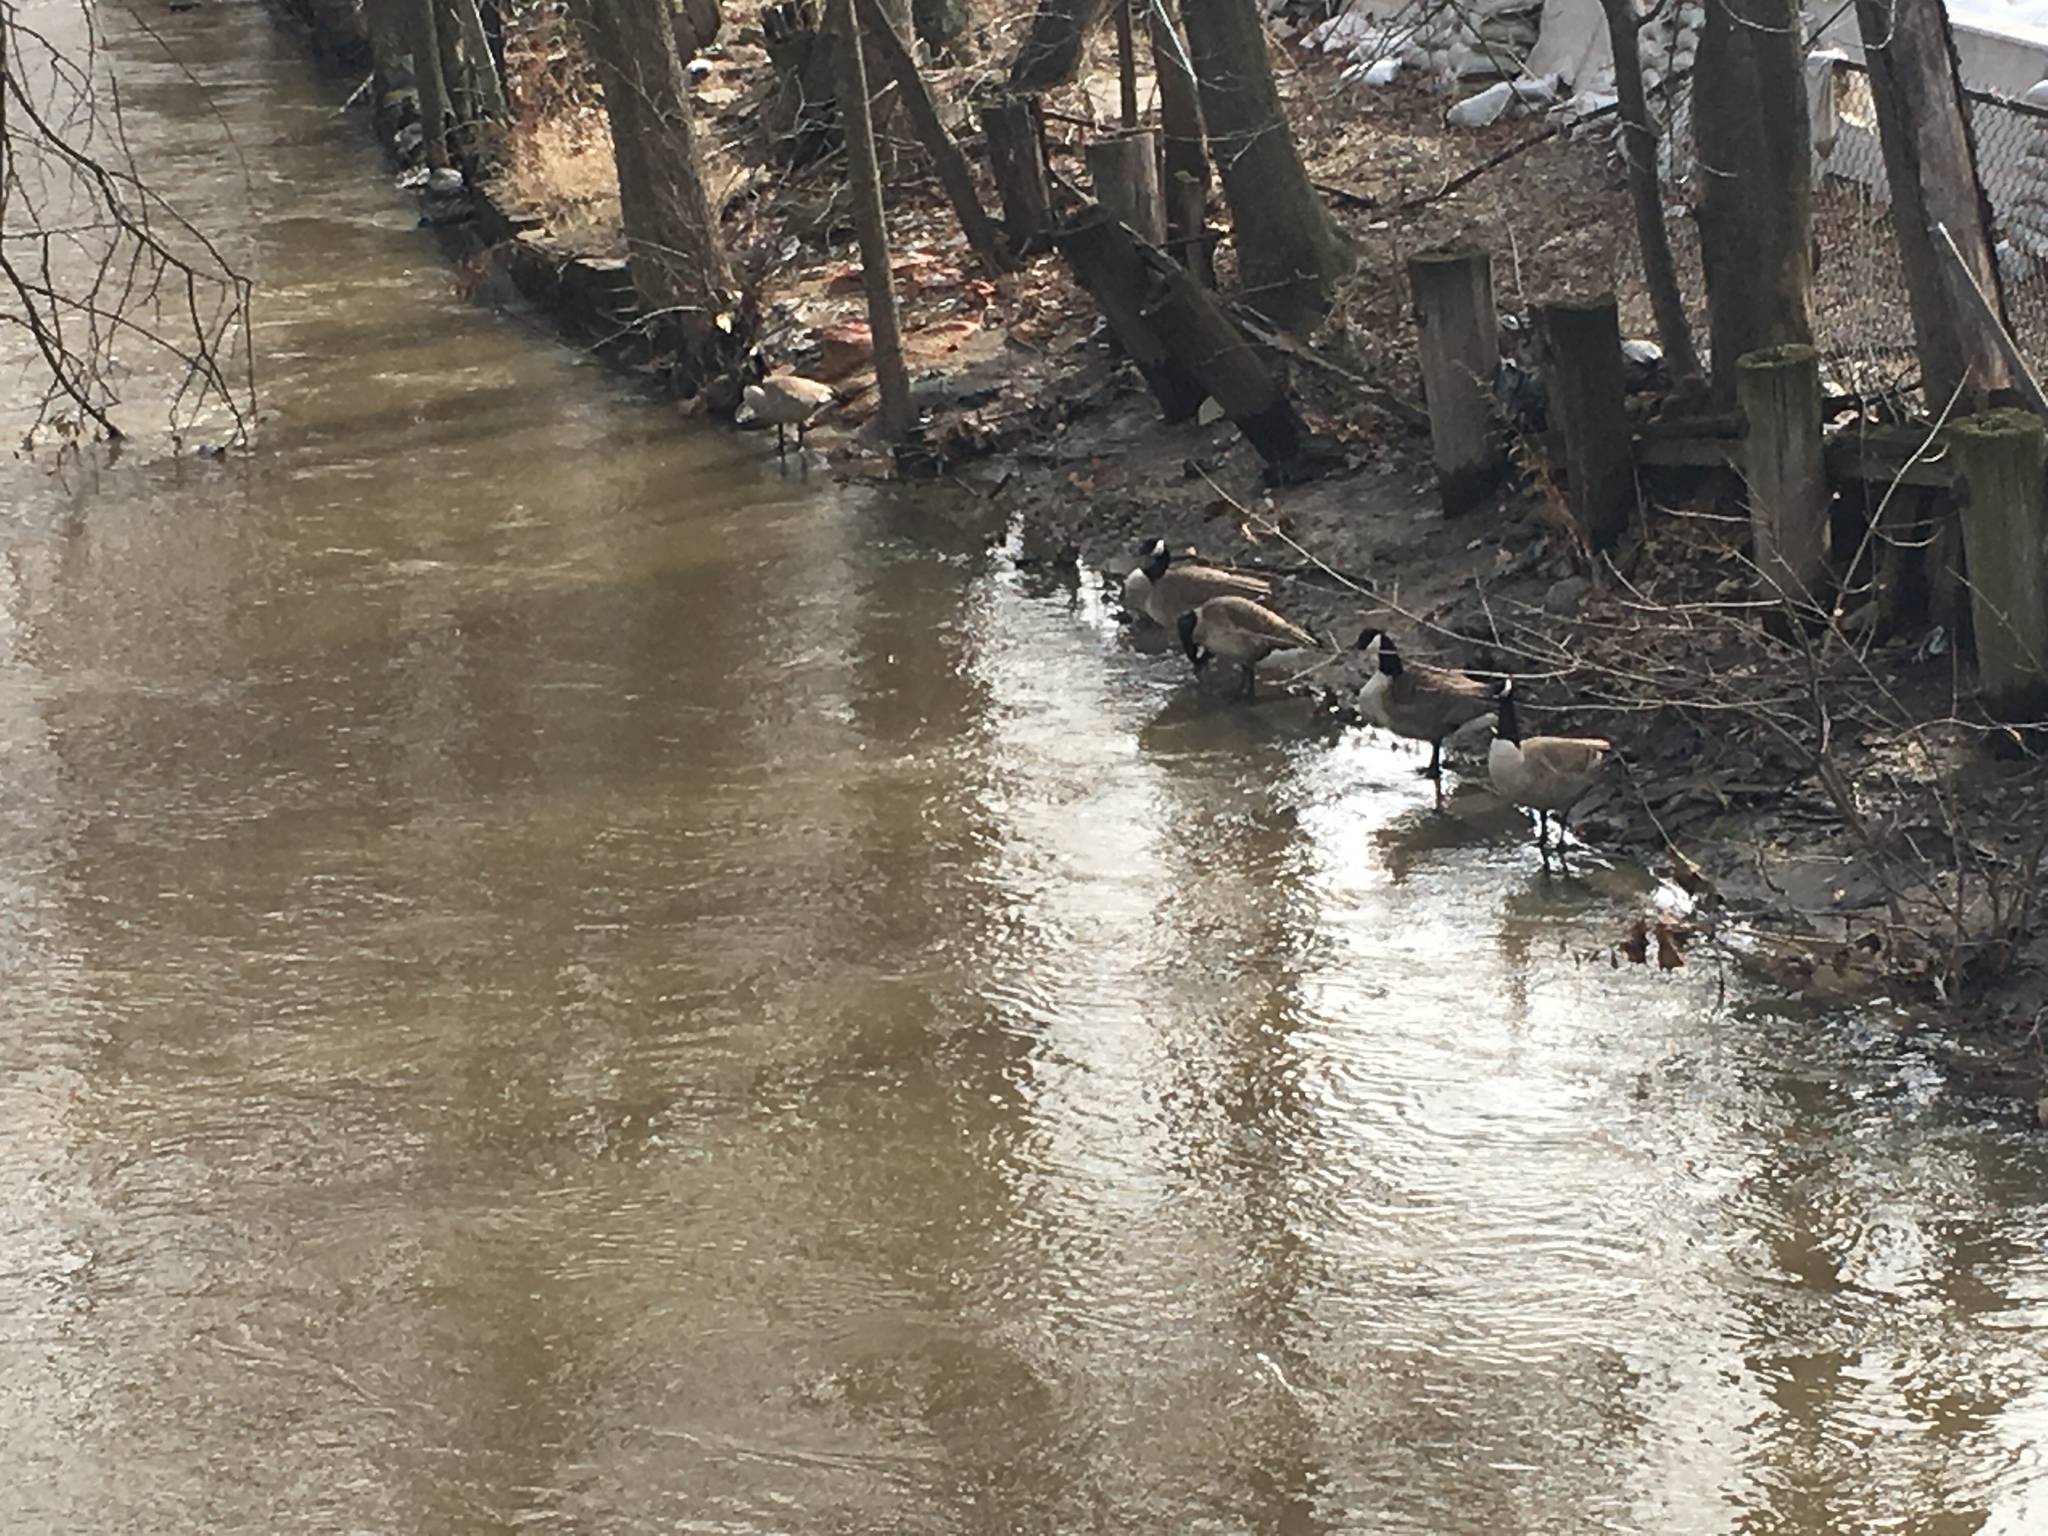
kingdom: Animalia
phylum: Chordata
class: Aves
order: Anseriformes
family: Anatidae
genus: Branta
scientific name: Branta canadensis
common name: Canada goose
